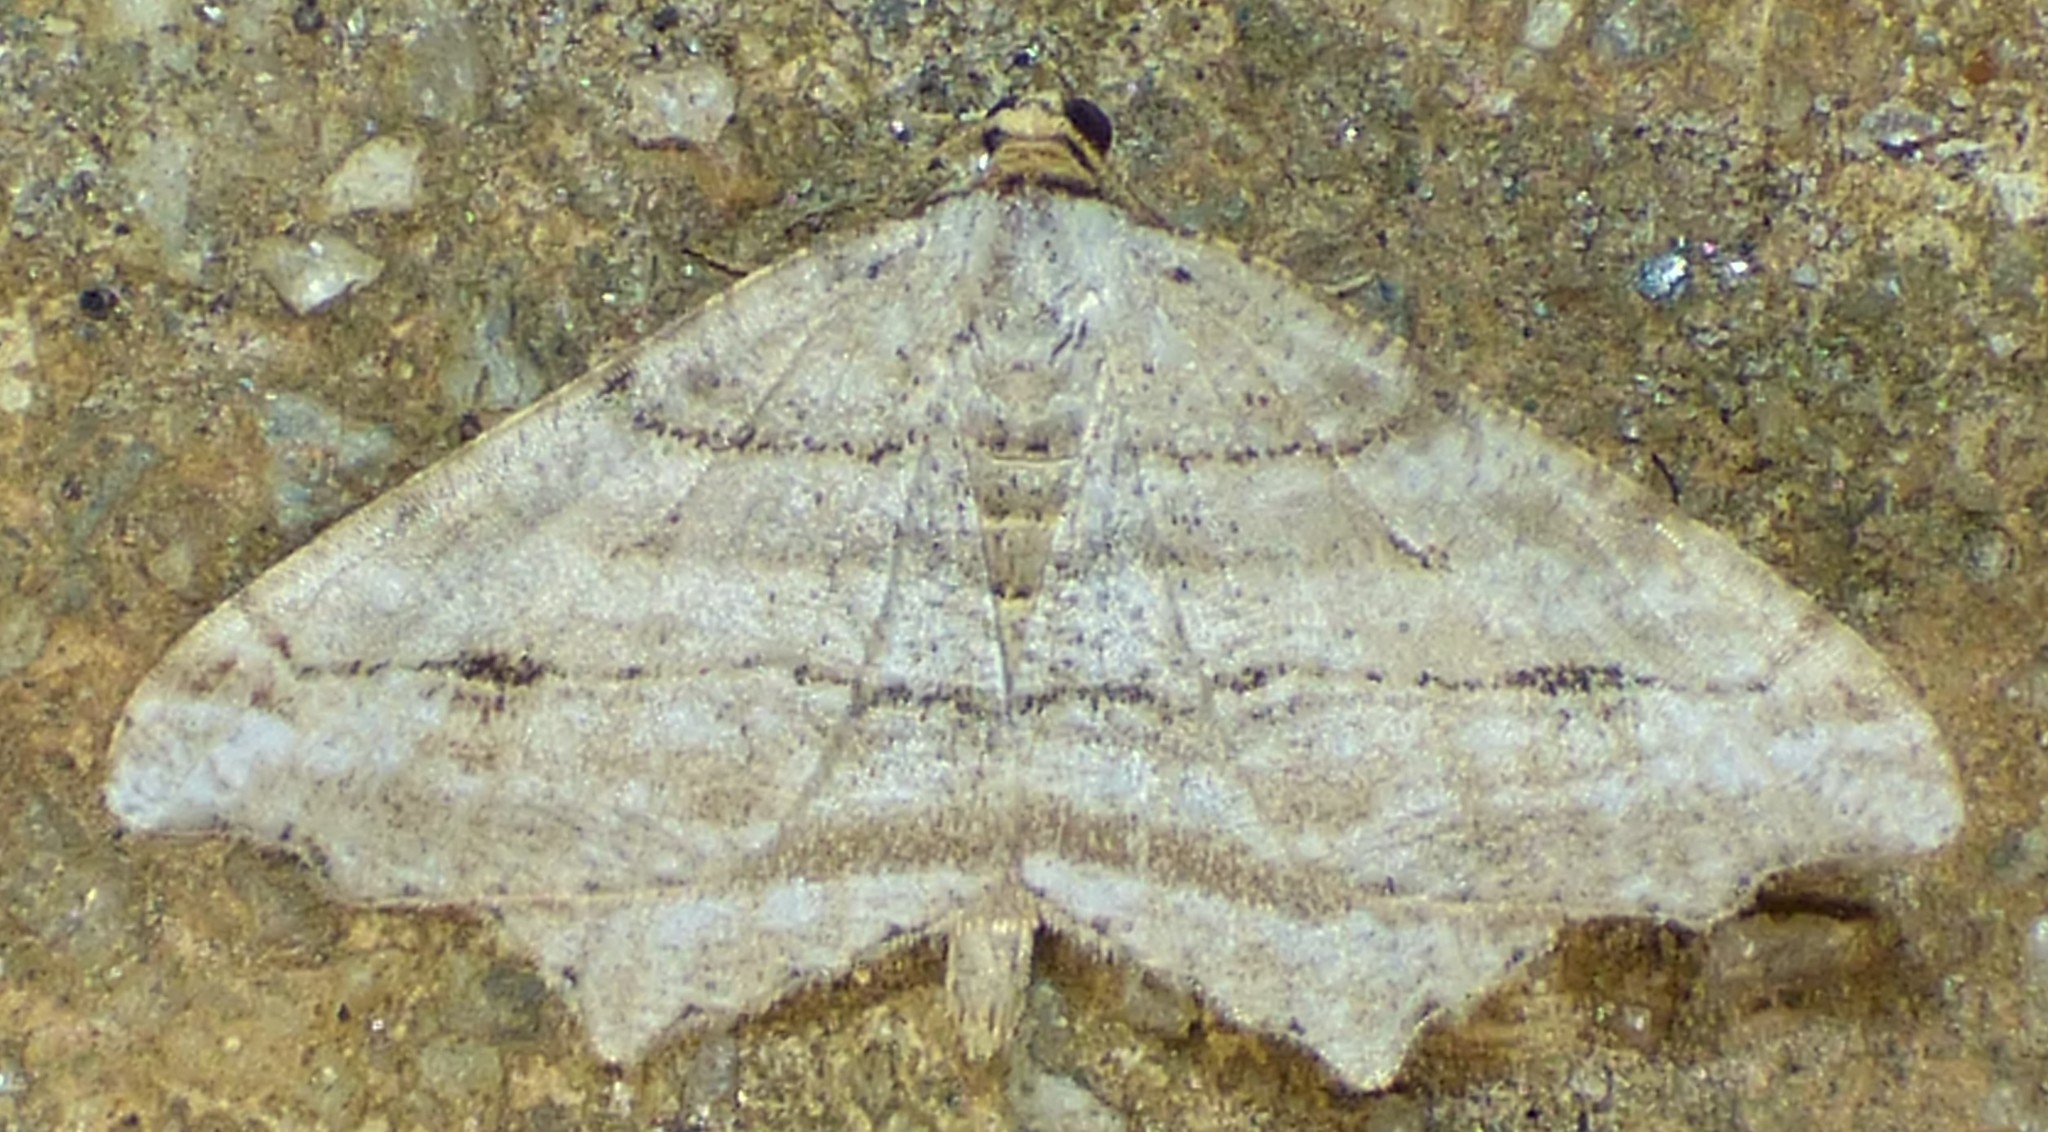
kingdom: Animalia
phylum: Arthropoda
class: Insecta
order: Lepidoptera
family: Geometridae
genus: Macaria
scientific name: Macaria multilineata
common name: Many-lined angle
